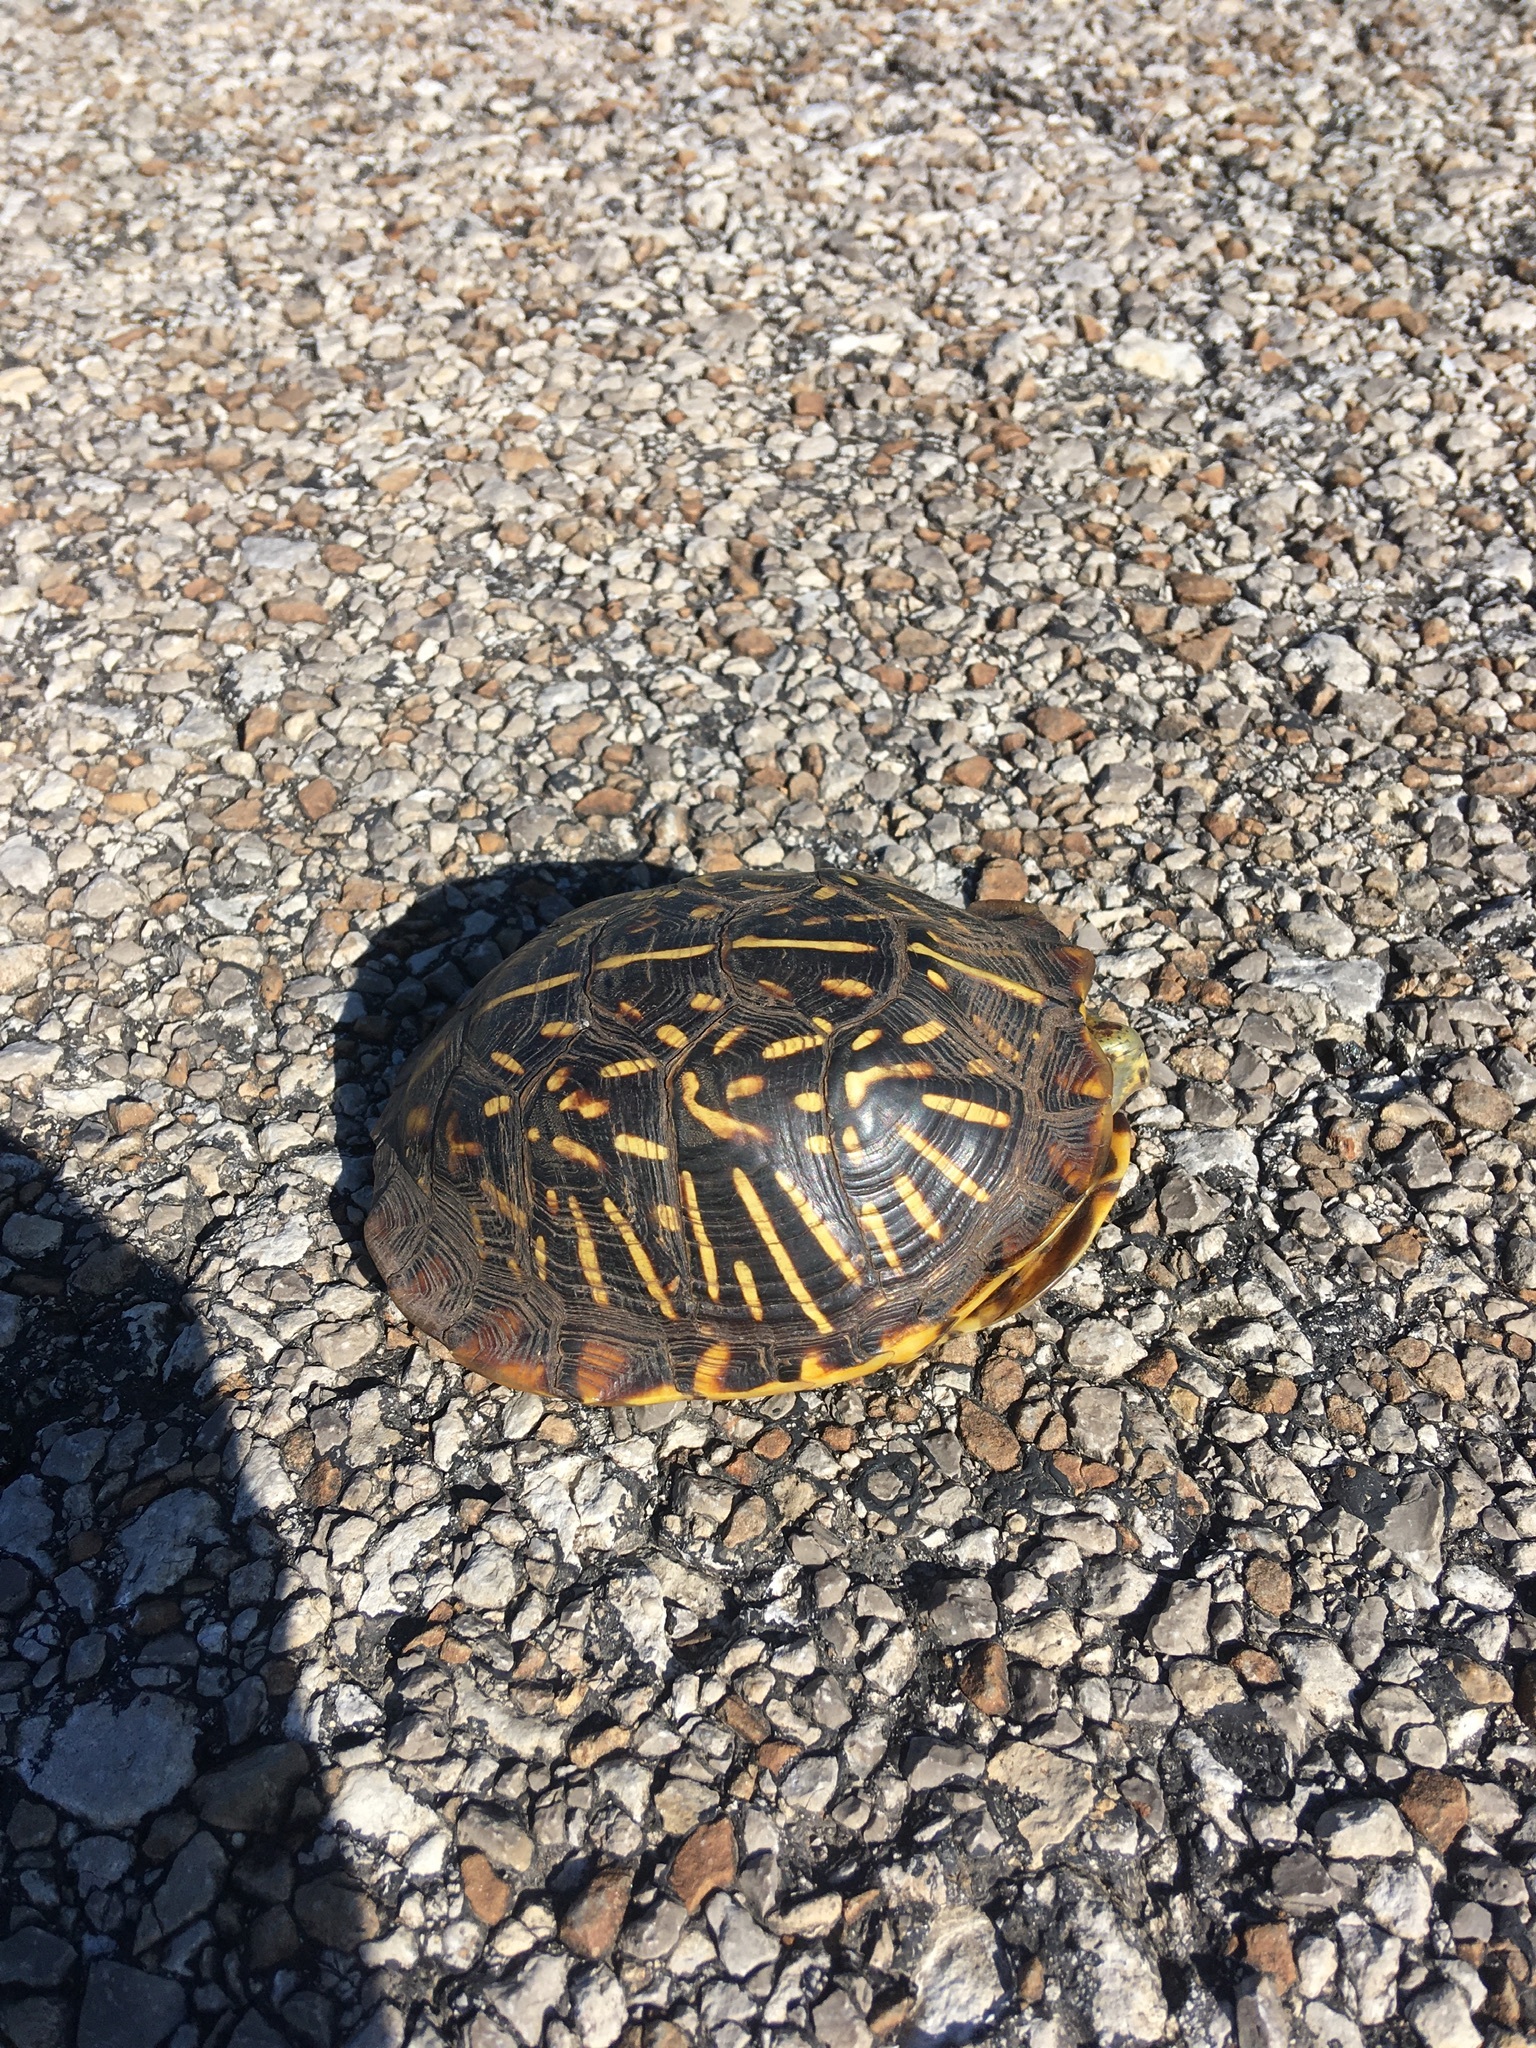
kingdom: Animalia
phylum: Chordata
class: Testudines
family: Emydidae
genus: Terrapene
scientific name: Terrapene ornata
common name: Western box turtle
